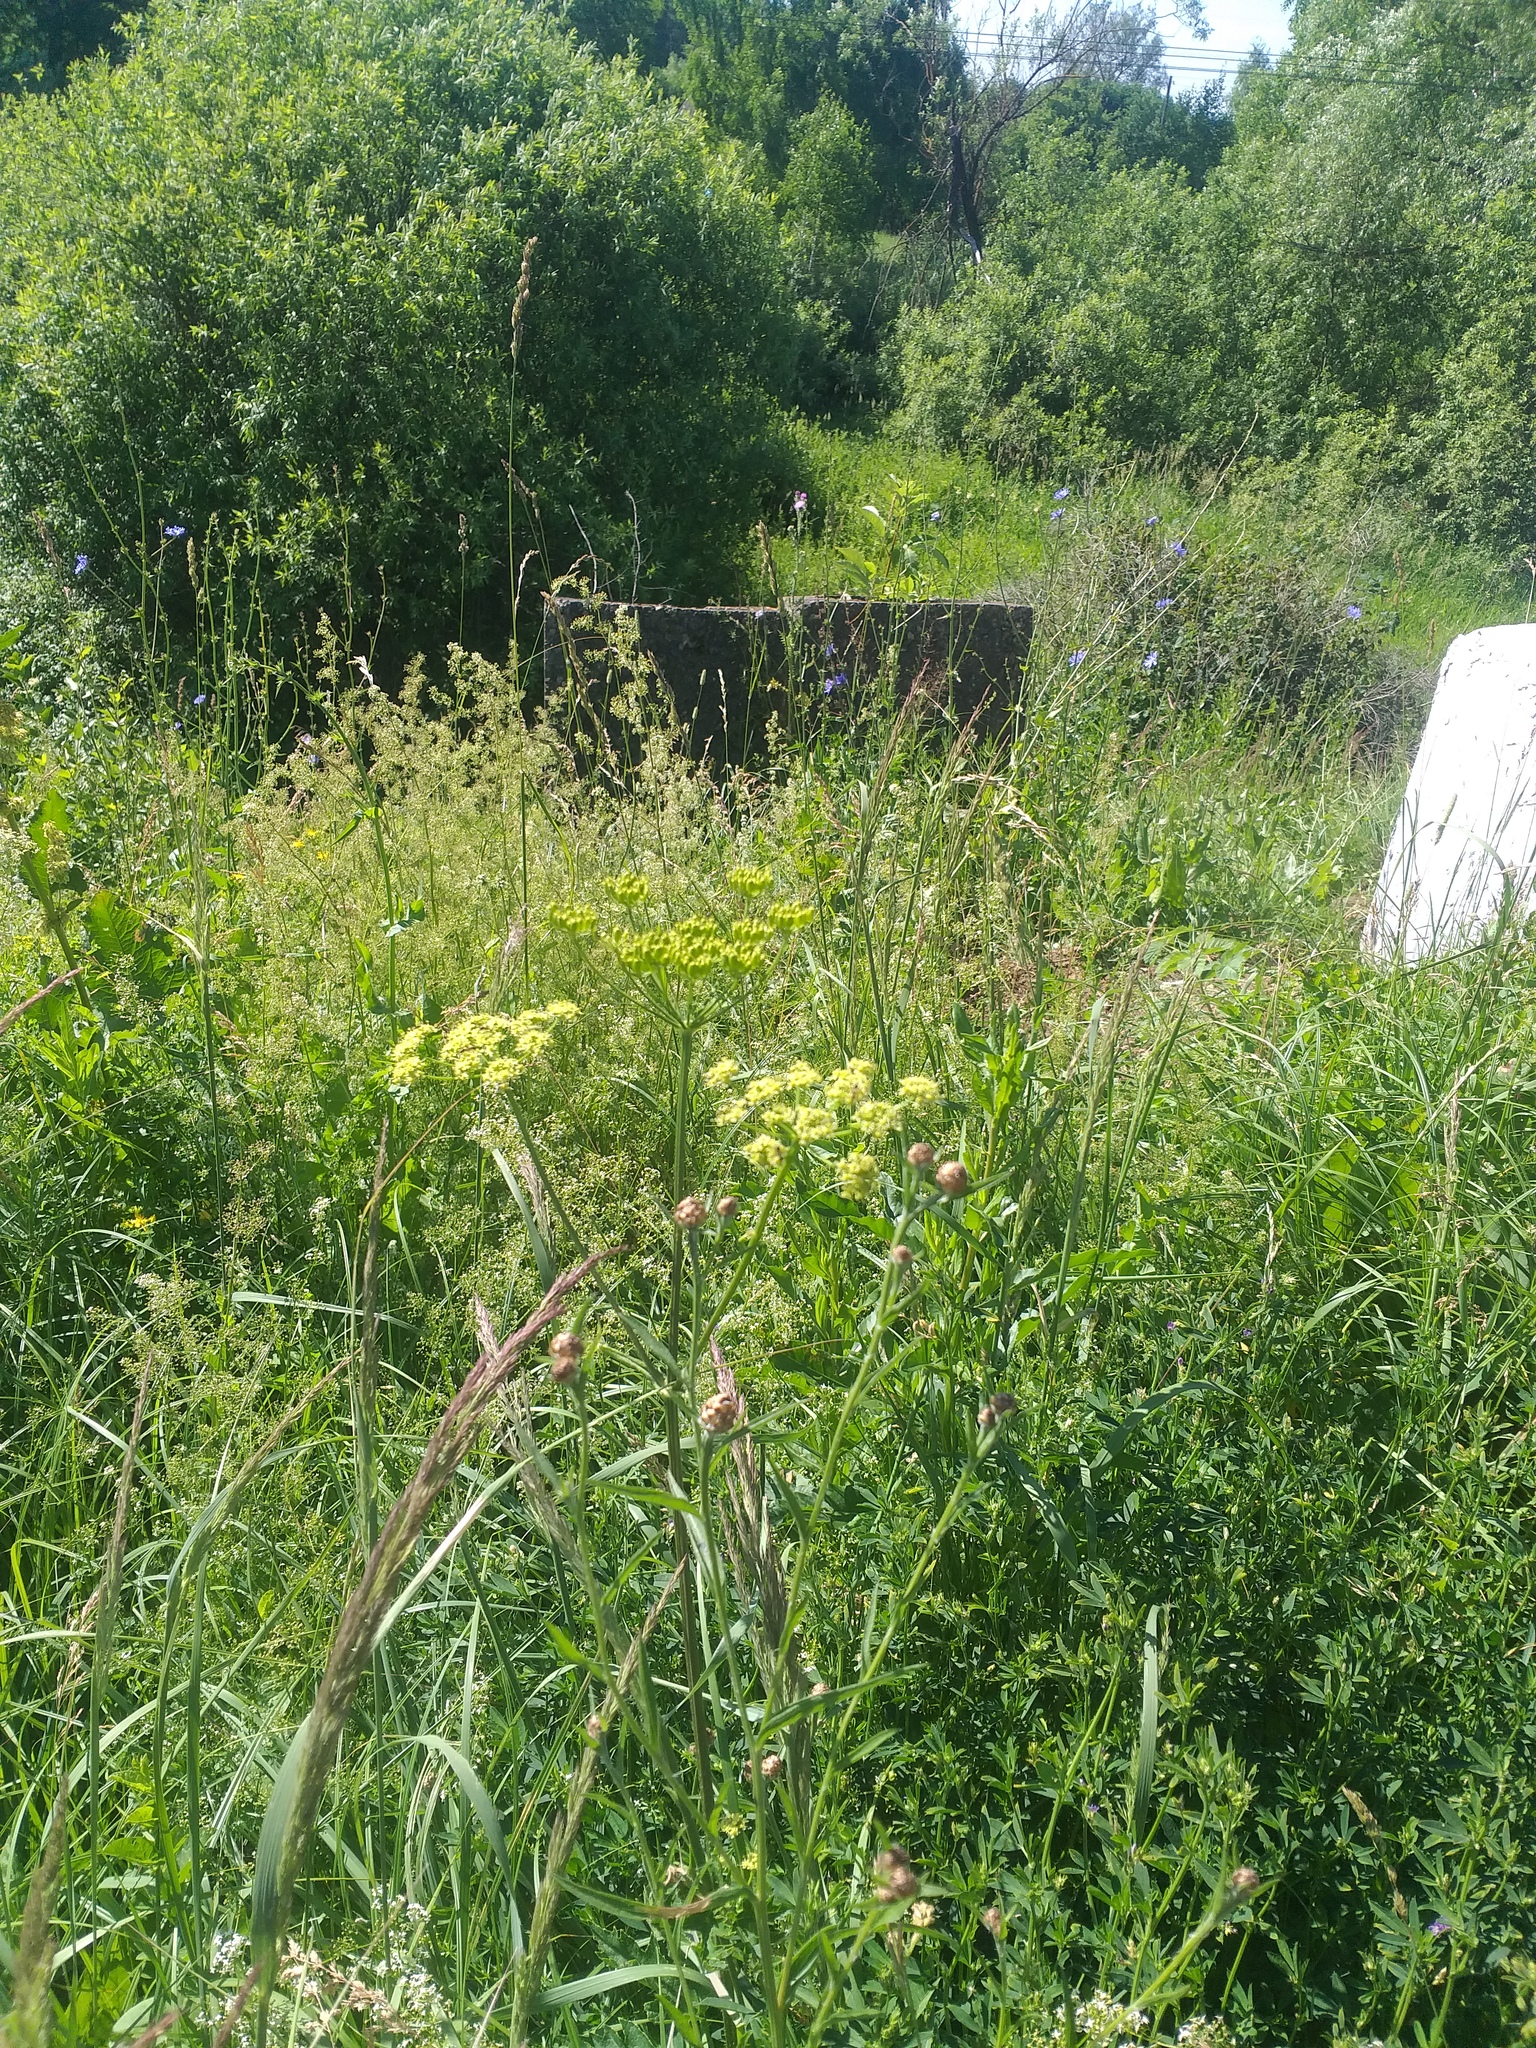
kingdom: Plantae
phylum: Tracheophyta
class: Magnoliopsida
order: Apiales
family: Apiaceae
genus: Heracleum
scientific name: Heracleum sphondylium
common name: Hogweed
